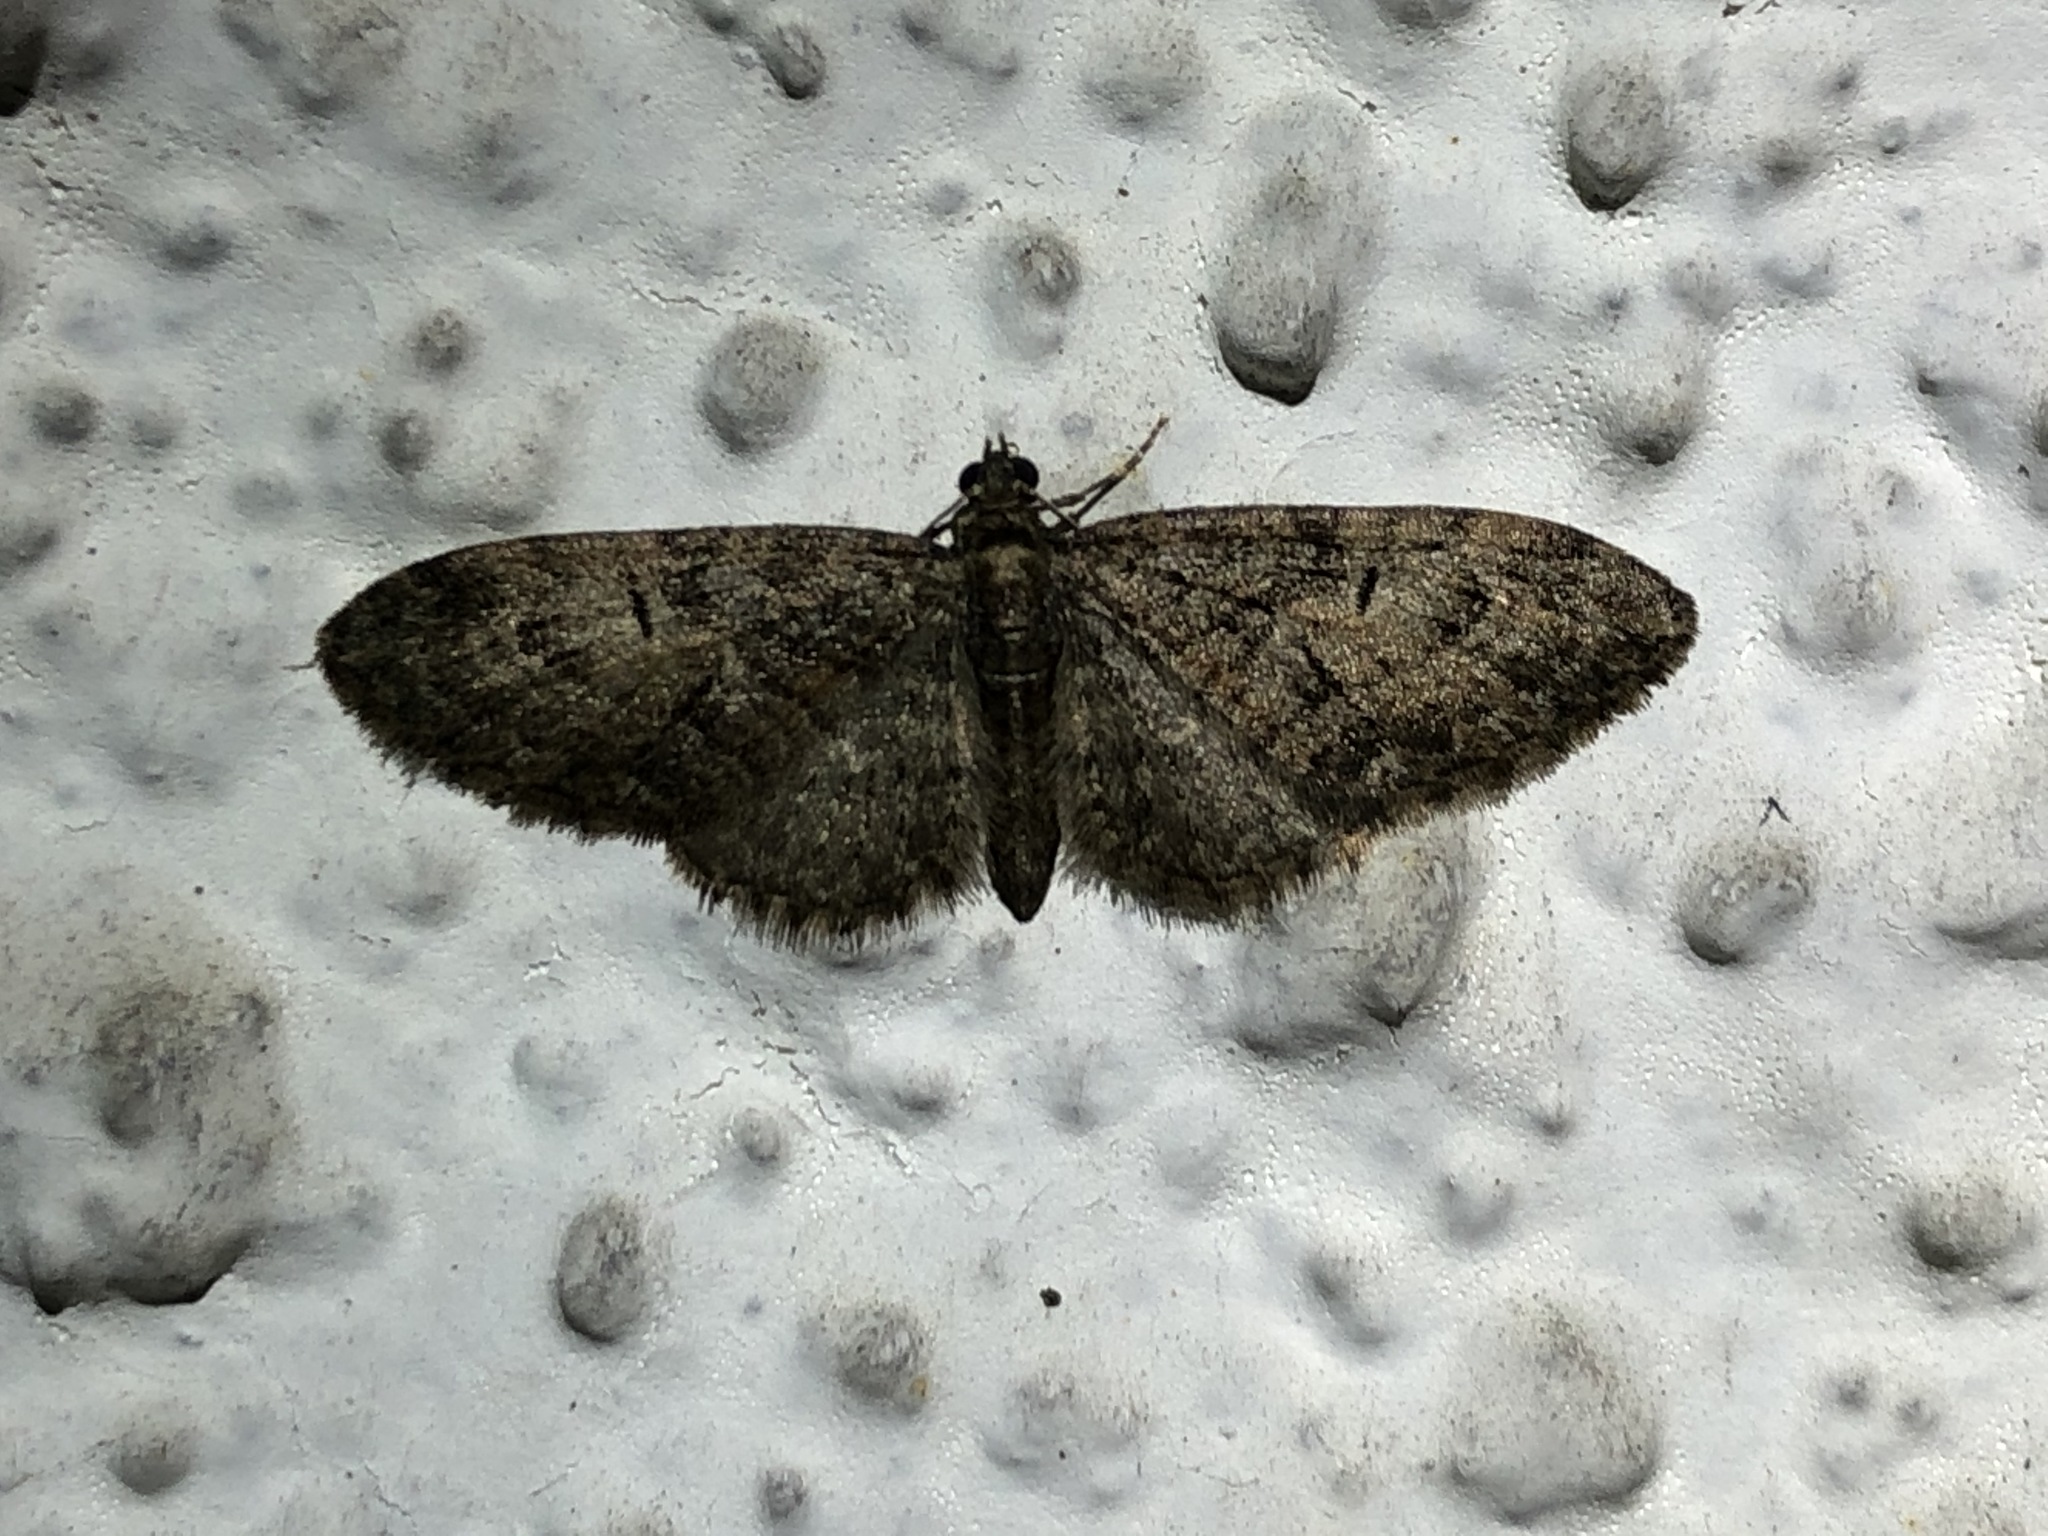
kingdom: Animalia
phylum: Arthropoda
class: Insecta
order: Lepidoptera
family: Geometridae
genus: Eupithecia
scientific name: Eupithecia abbreviata
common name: Brindled pug
